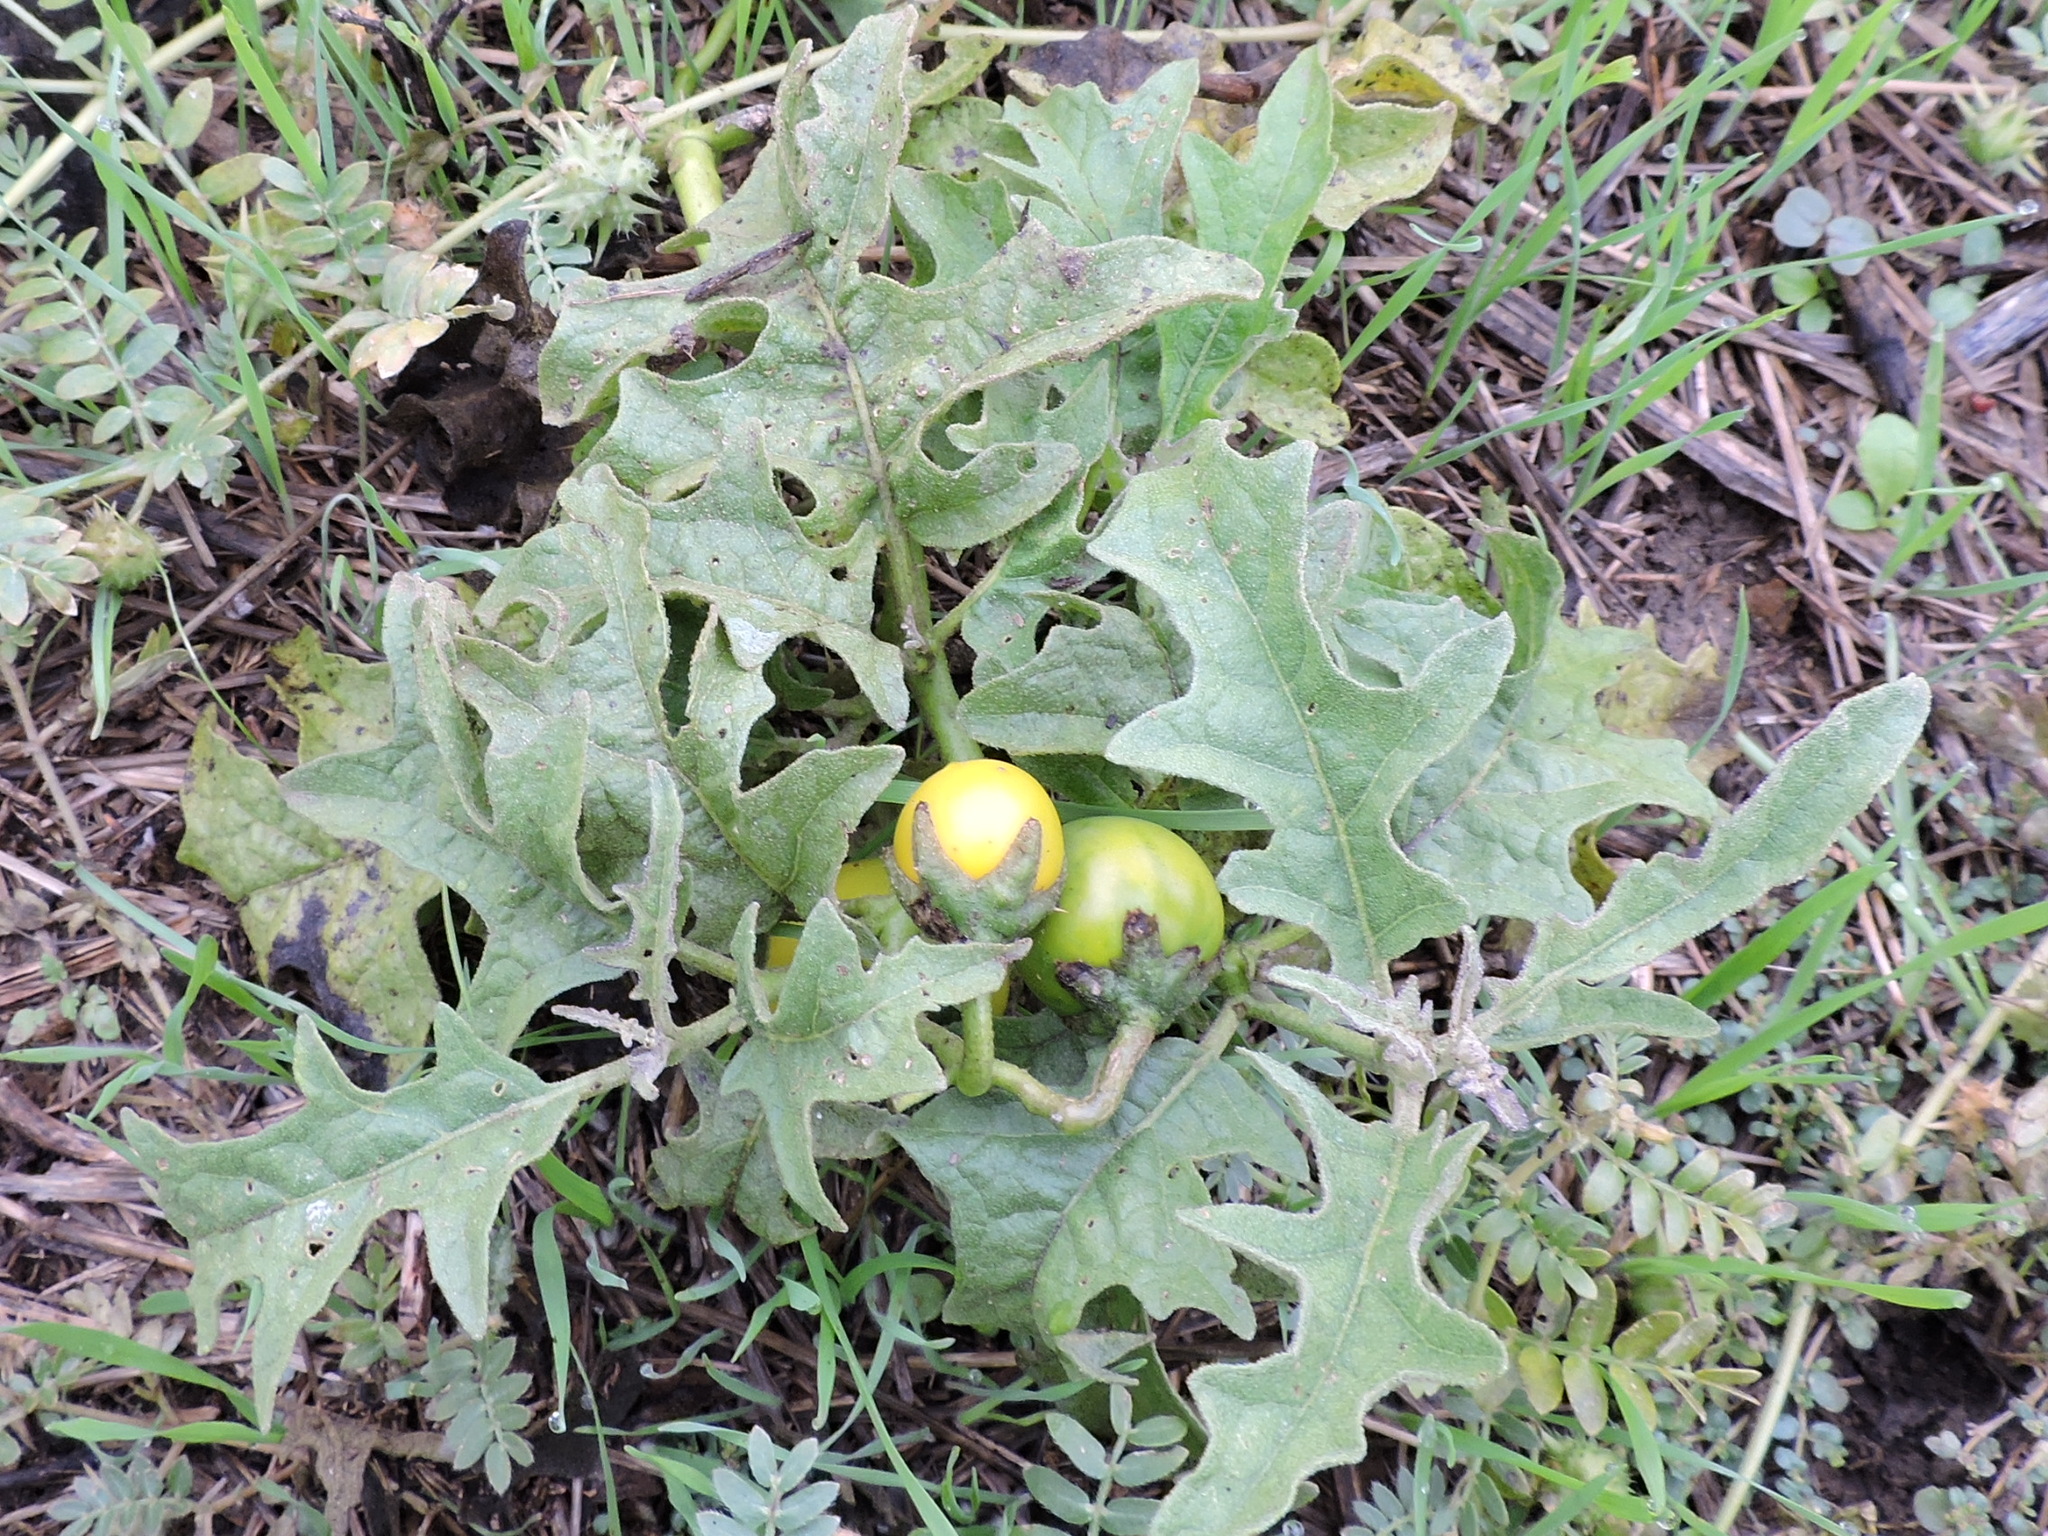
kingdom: Plantae
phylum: Tracheophyta
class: Magnoliopsida
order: Solanales
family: Solanaceae
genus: Solanum
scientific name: Solanum dimidiatum
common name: Carolina horse-nettle
